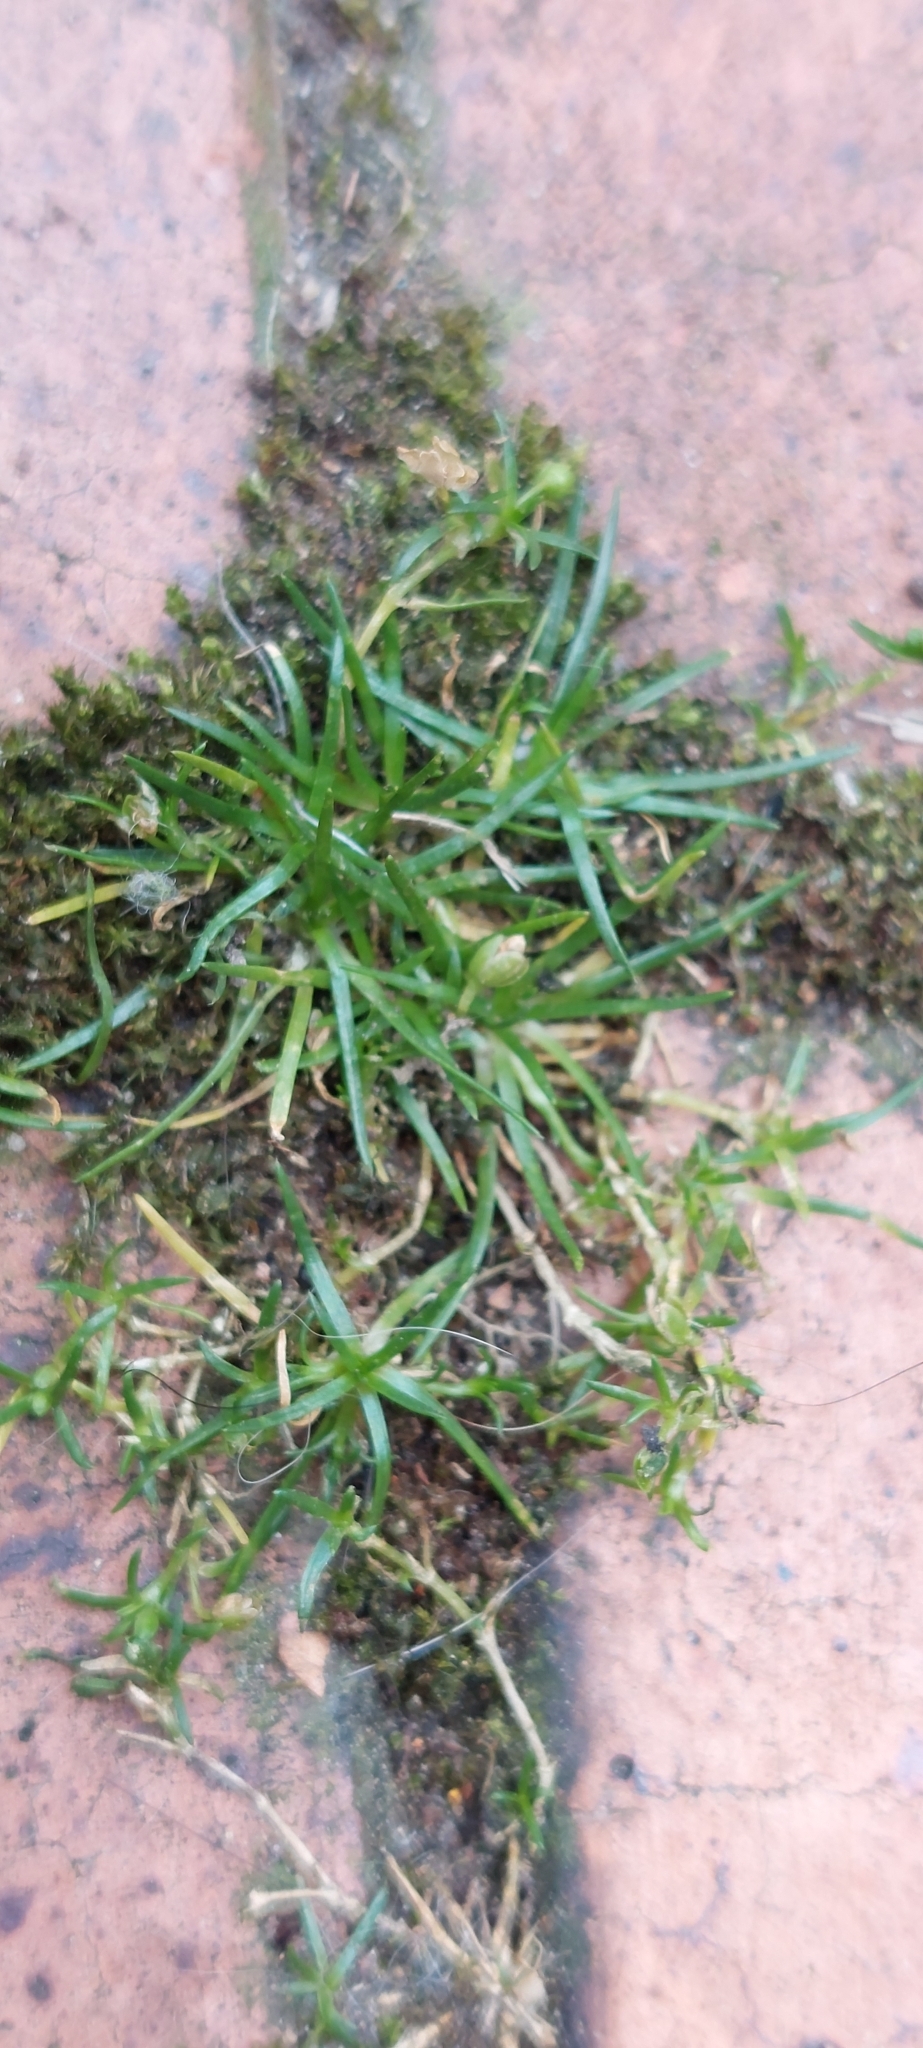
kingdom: Plantae
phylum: Tracheophyta
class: Magnoliopsida
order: Caryophyllales
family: Caryophyllaceae
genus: Sagina
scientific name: Sagina procumbens
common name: Procumbent pearlwort
